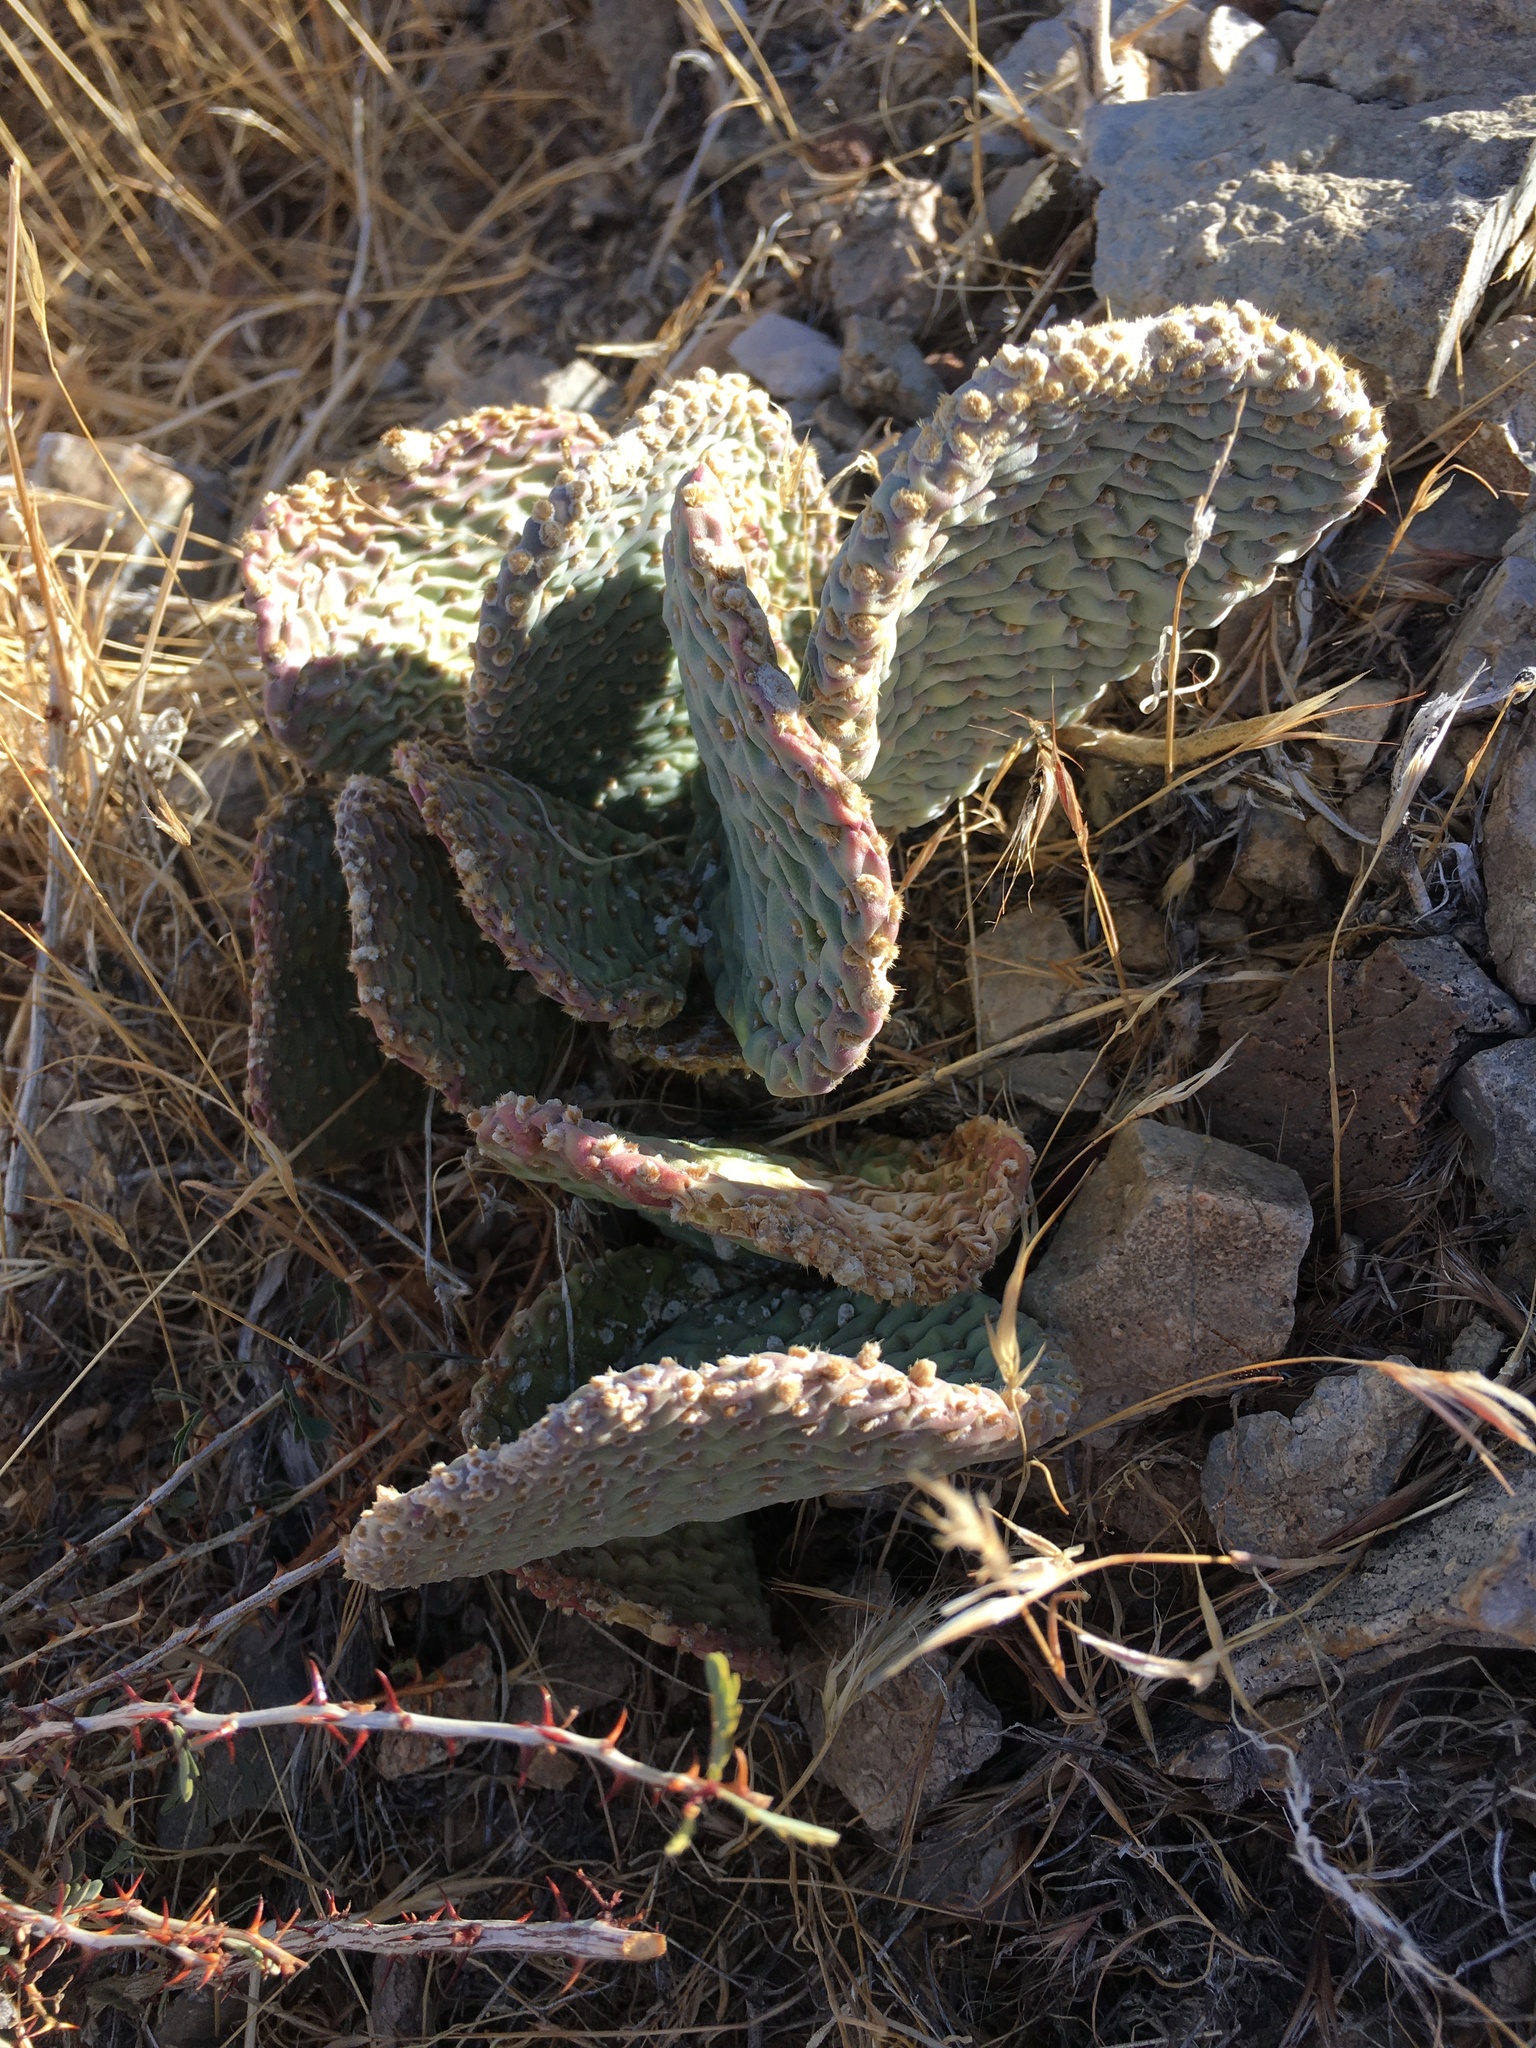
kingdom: Plantae
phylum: Tracheophyta
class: Magnoliopsida
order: Caryophyllales
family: Cactaceae
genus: Opuntia
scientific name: Opuntia basilaris
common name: Beavertail prickly-pear
